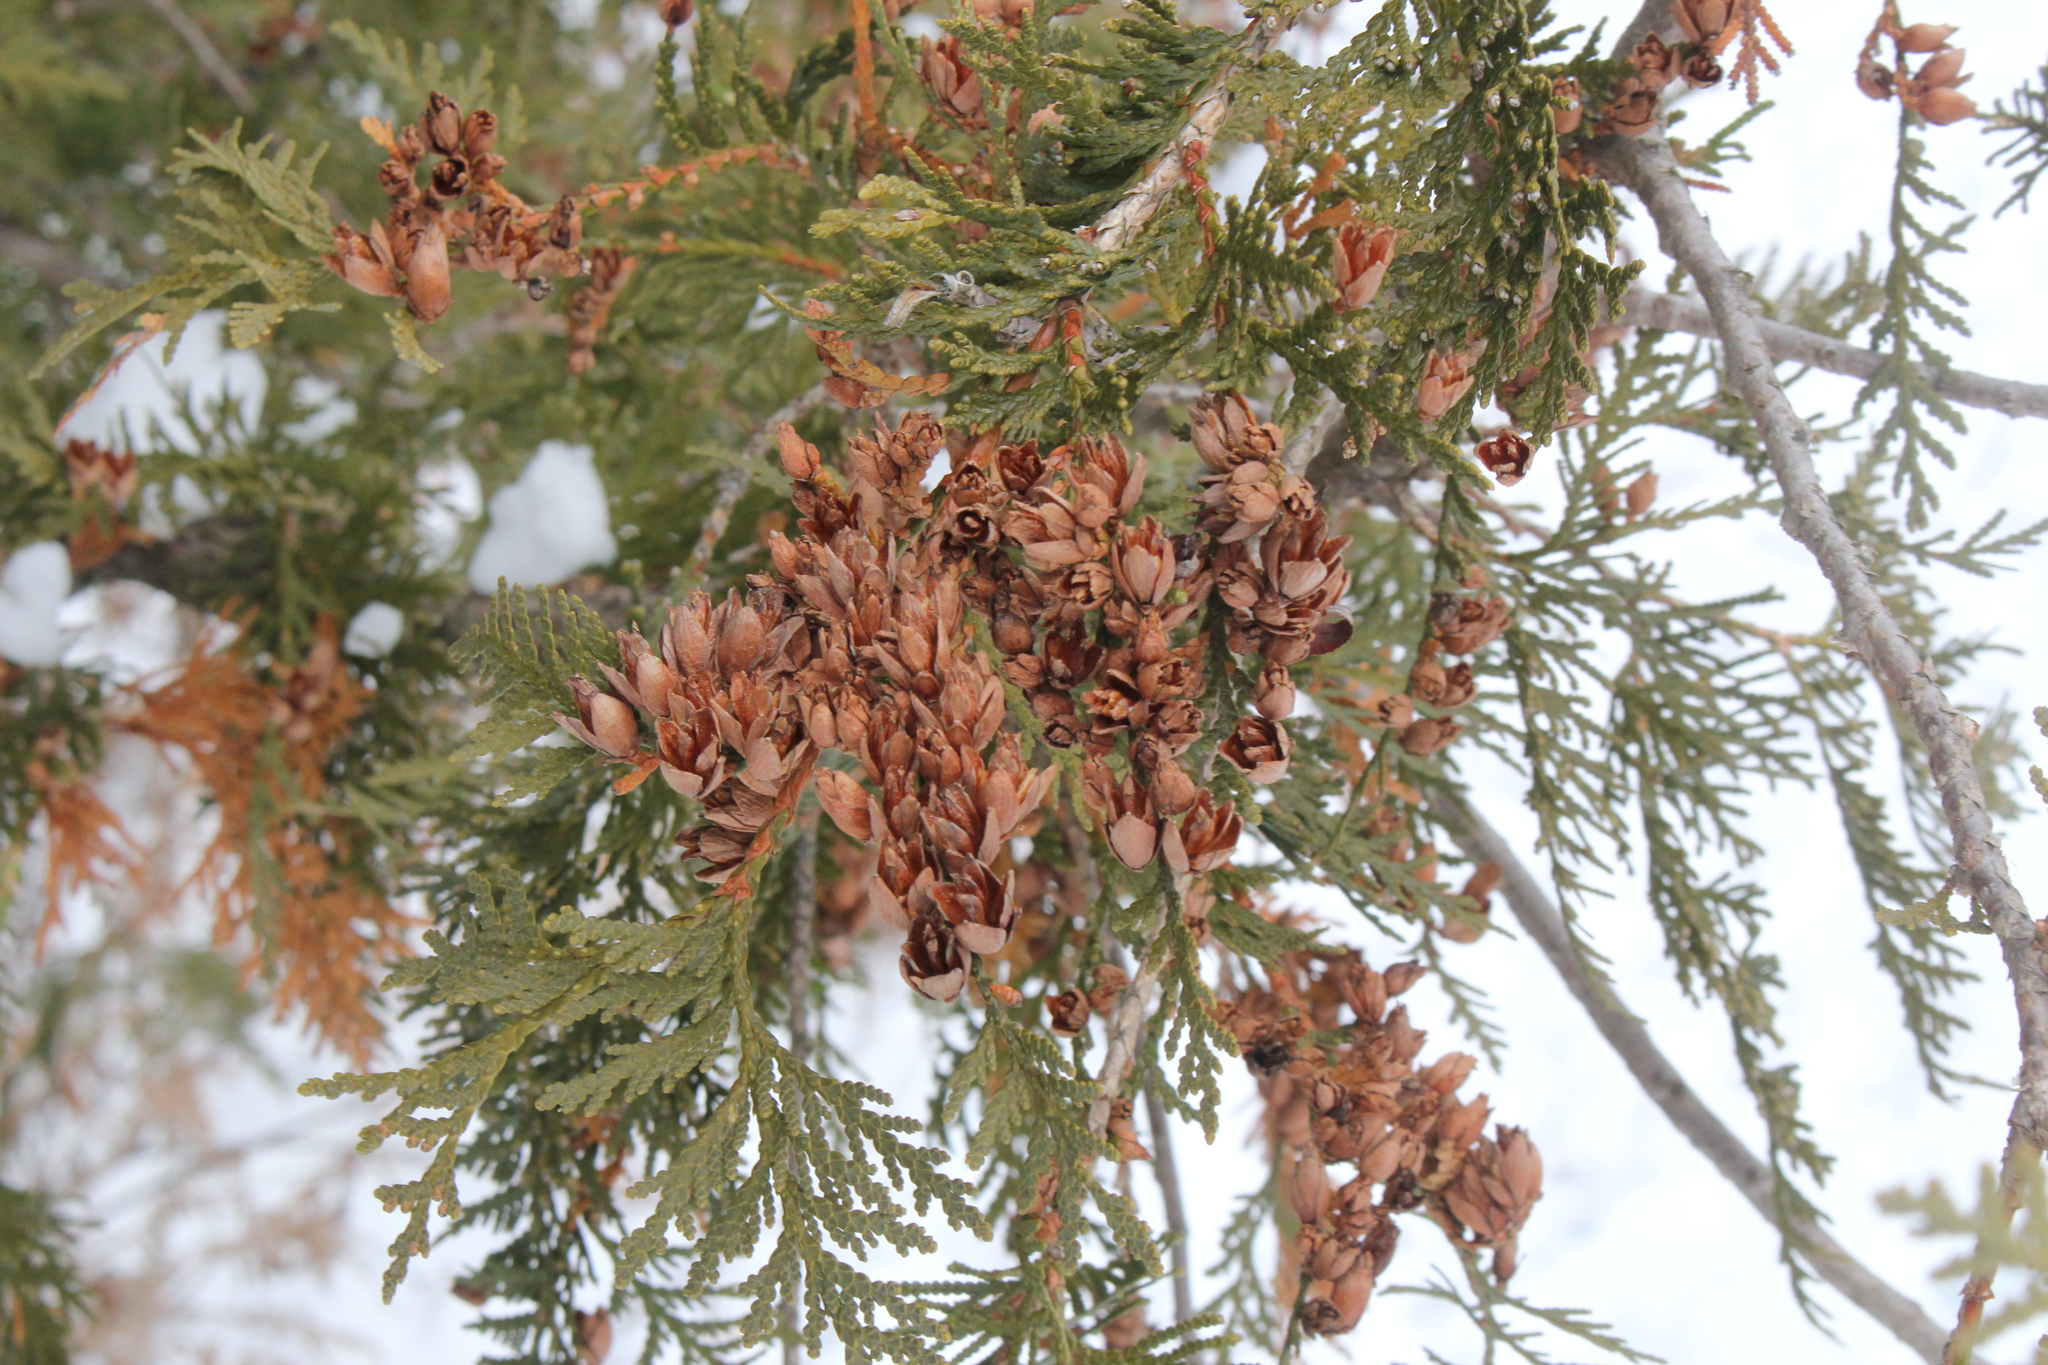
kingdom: Plantae
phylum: Tracheophyta
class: Pinopsida
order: Pinales
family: Cupressaceae
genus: Thuja
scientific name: Thuja occidentalis
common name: Northern white-cedar
